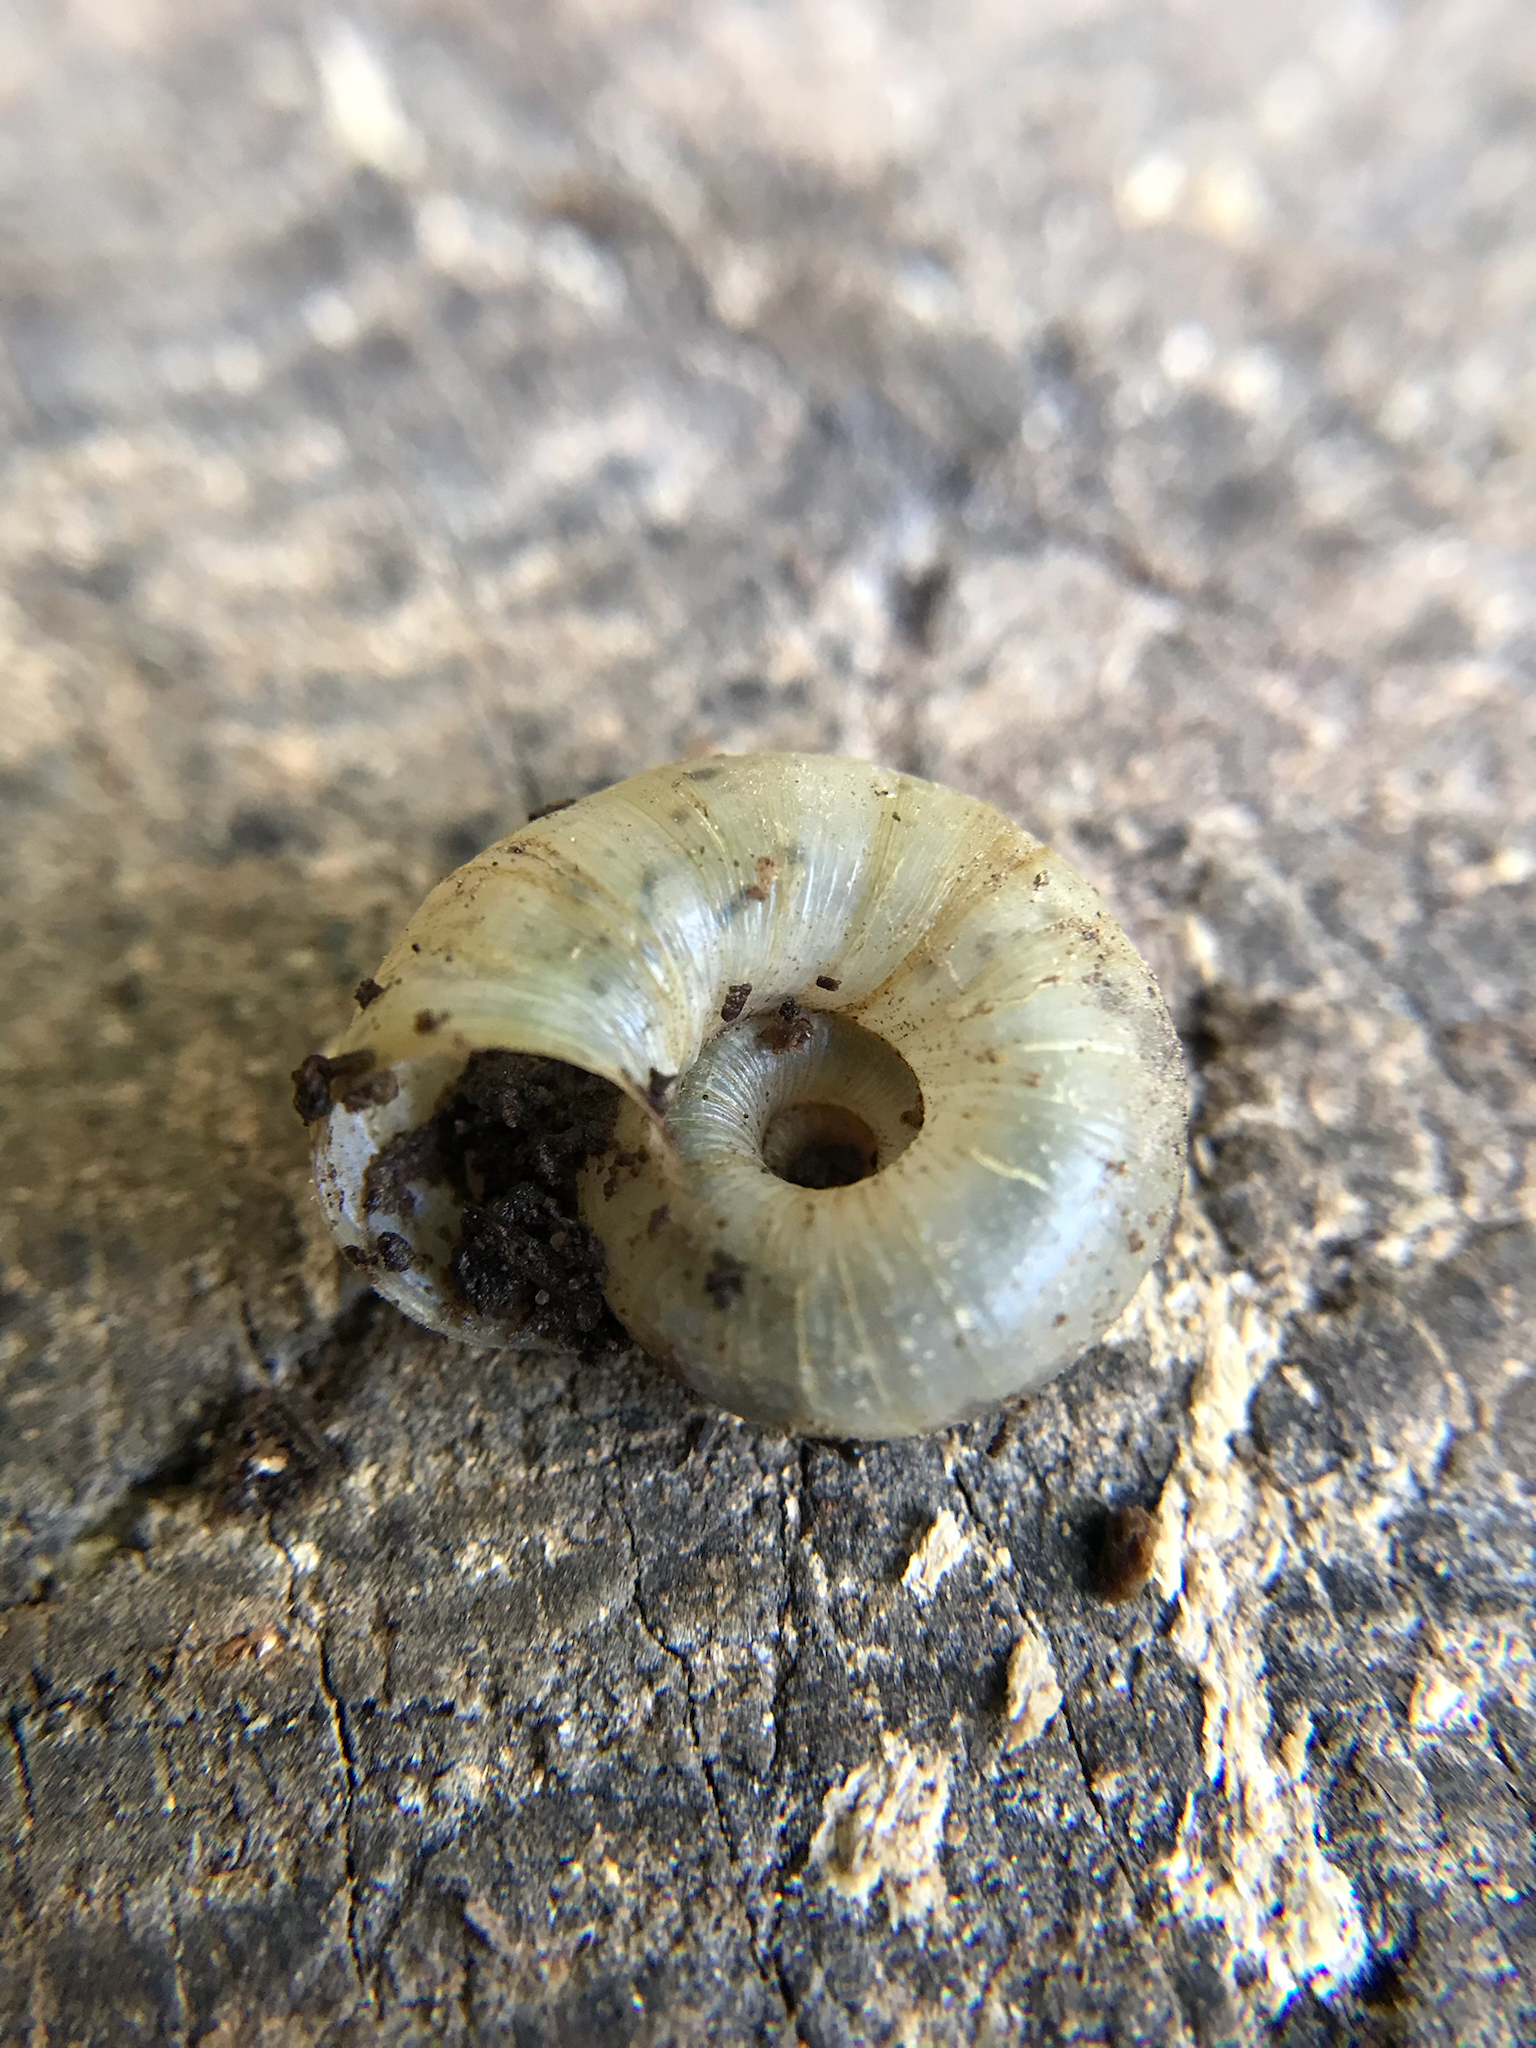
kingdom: Animalia
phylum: Mollusca
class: Gastropoda
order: Stylommatophora
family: Haplotrematidae
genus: Haplotrema
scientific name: Haplotrema concavum
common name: Gray-foot lancetooth
